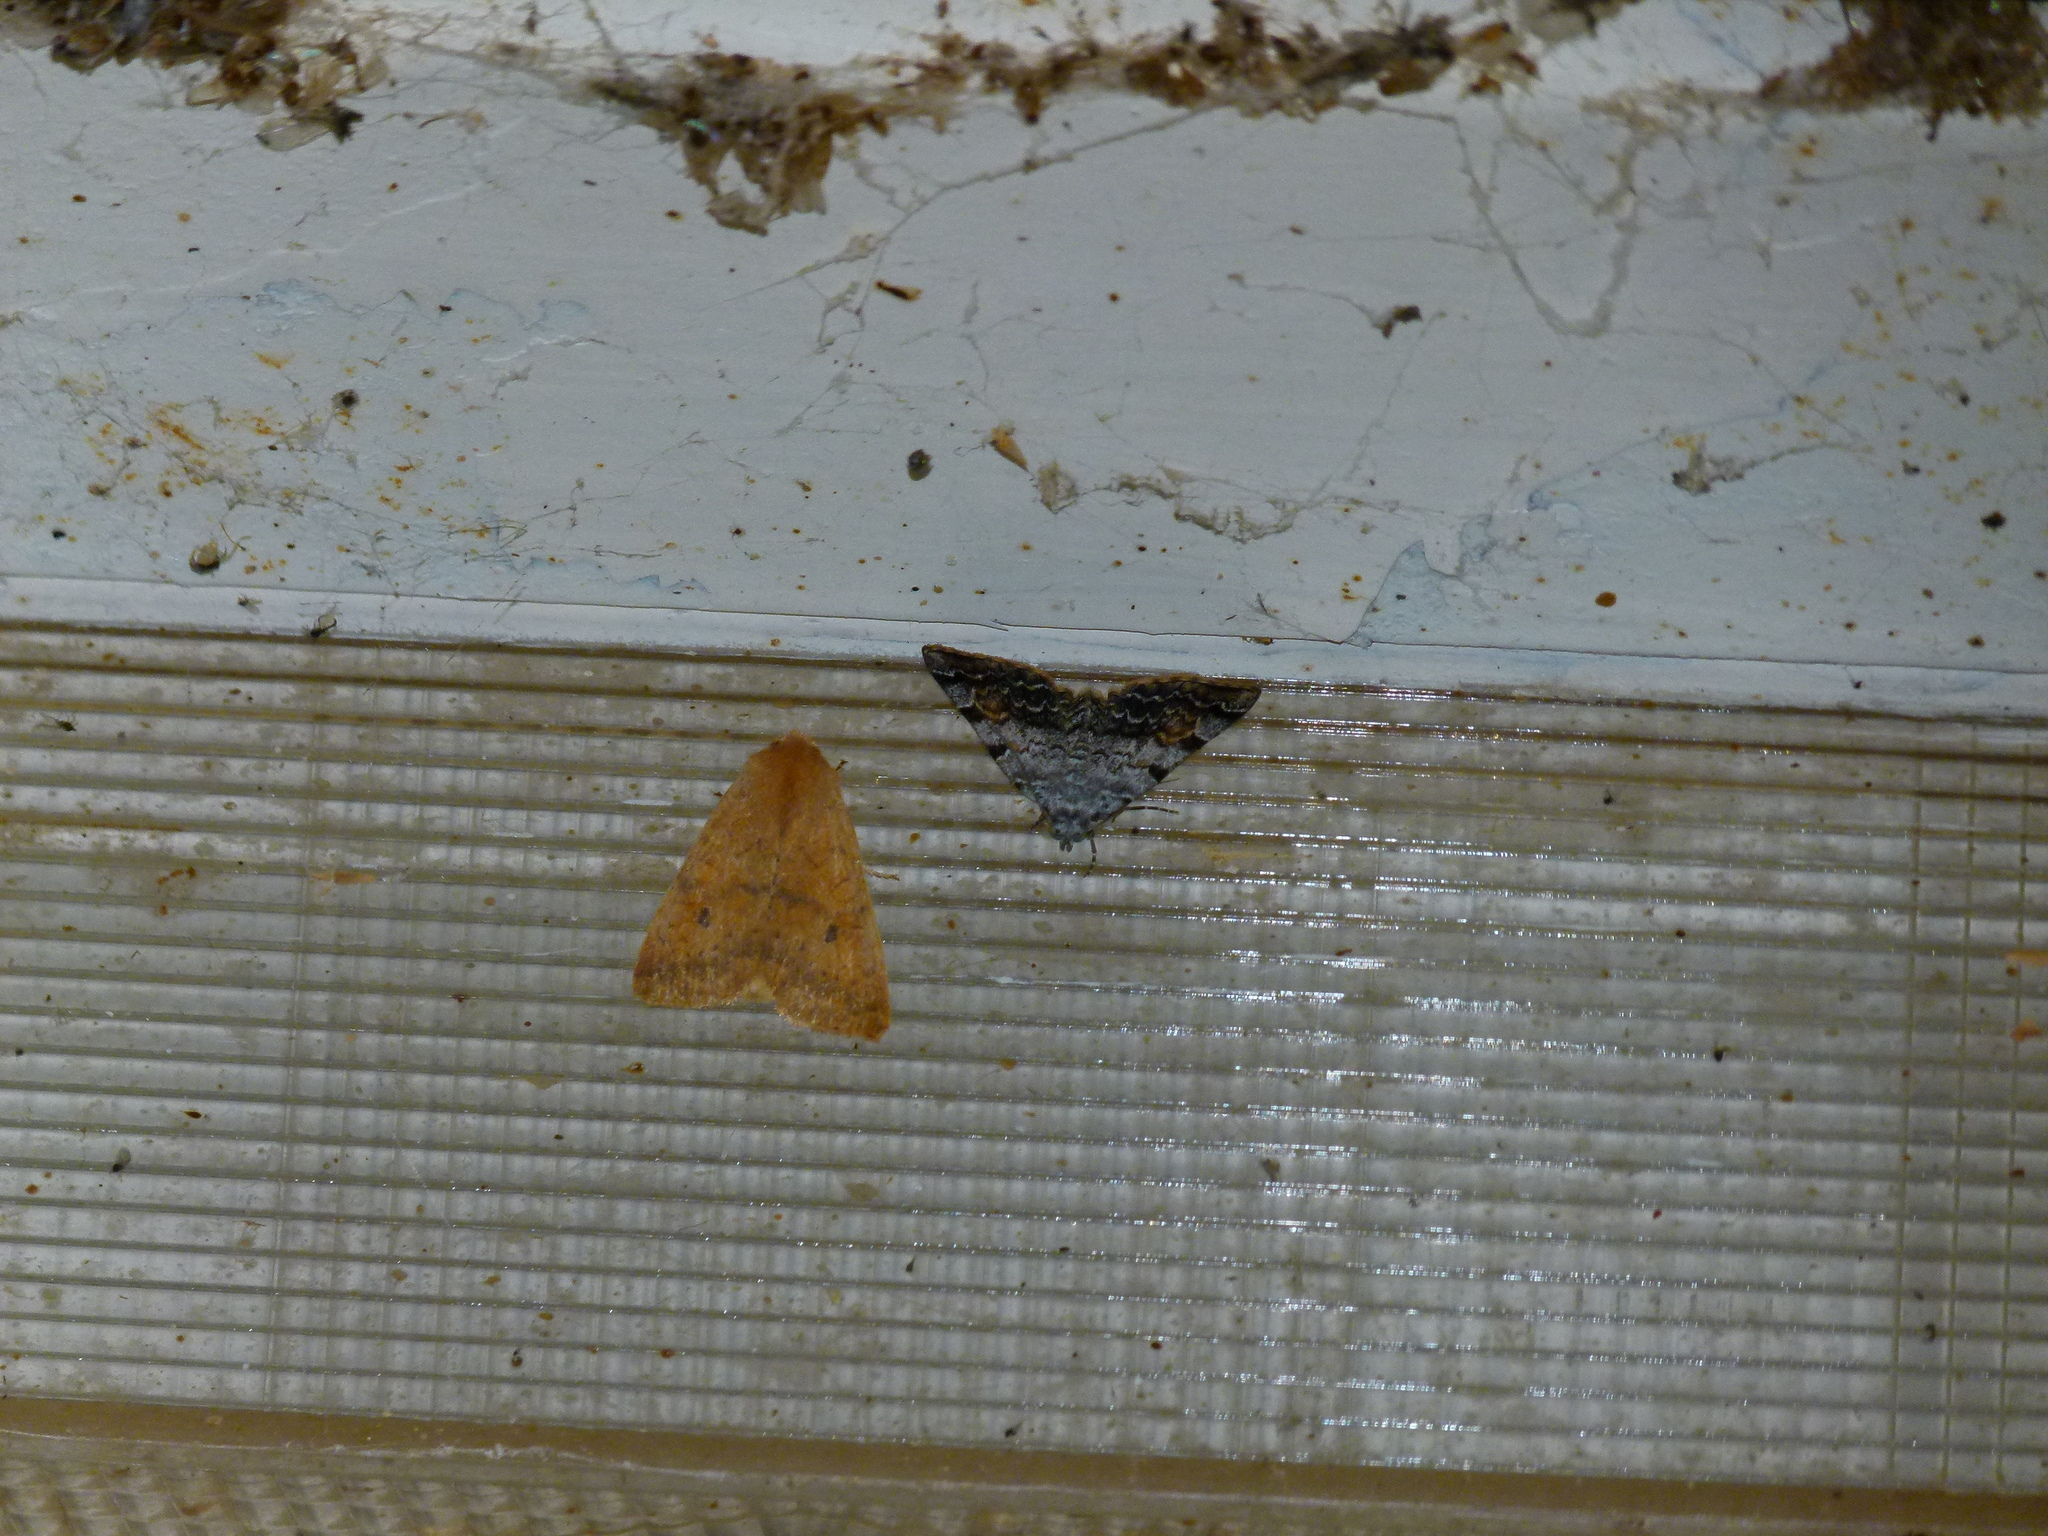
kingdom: Animalia
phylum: Arthropoda
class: Insecta
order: Lepidoptera
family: Erebidae
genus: Idia
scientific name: Idia americalis
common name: American idia moth
